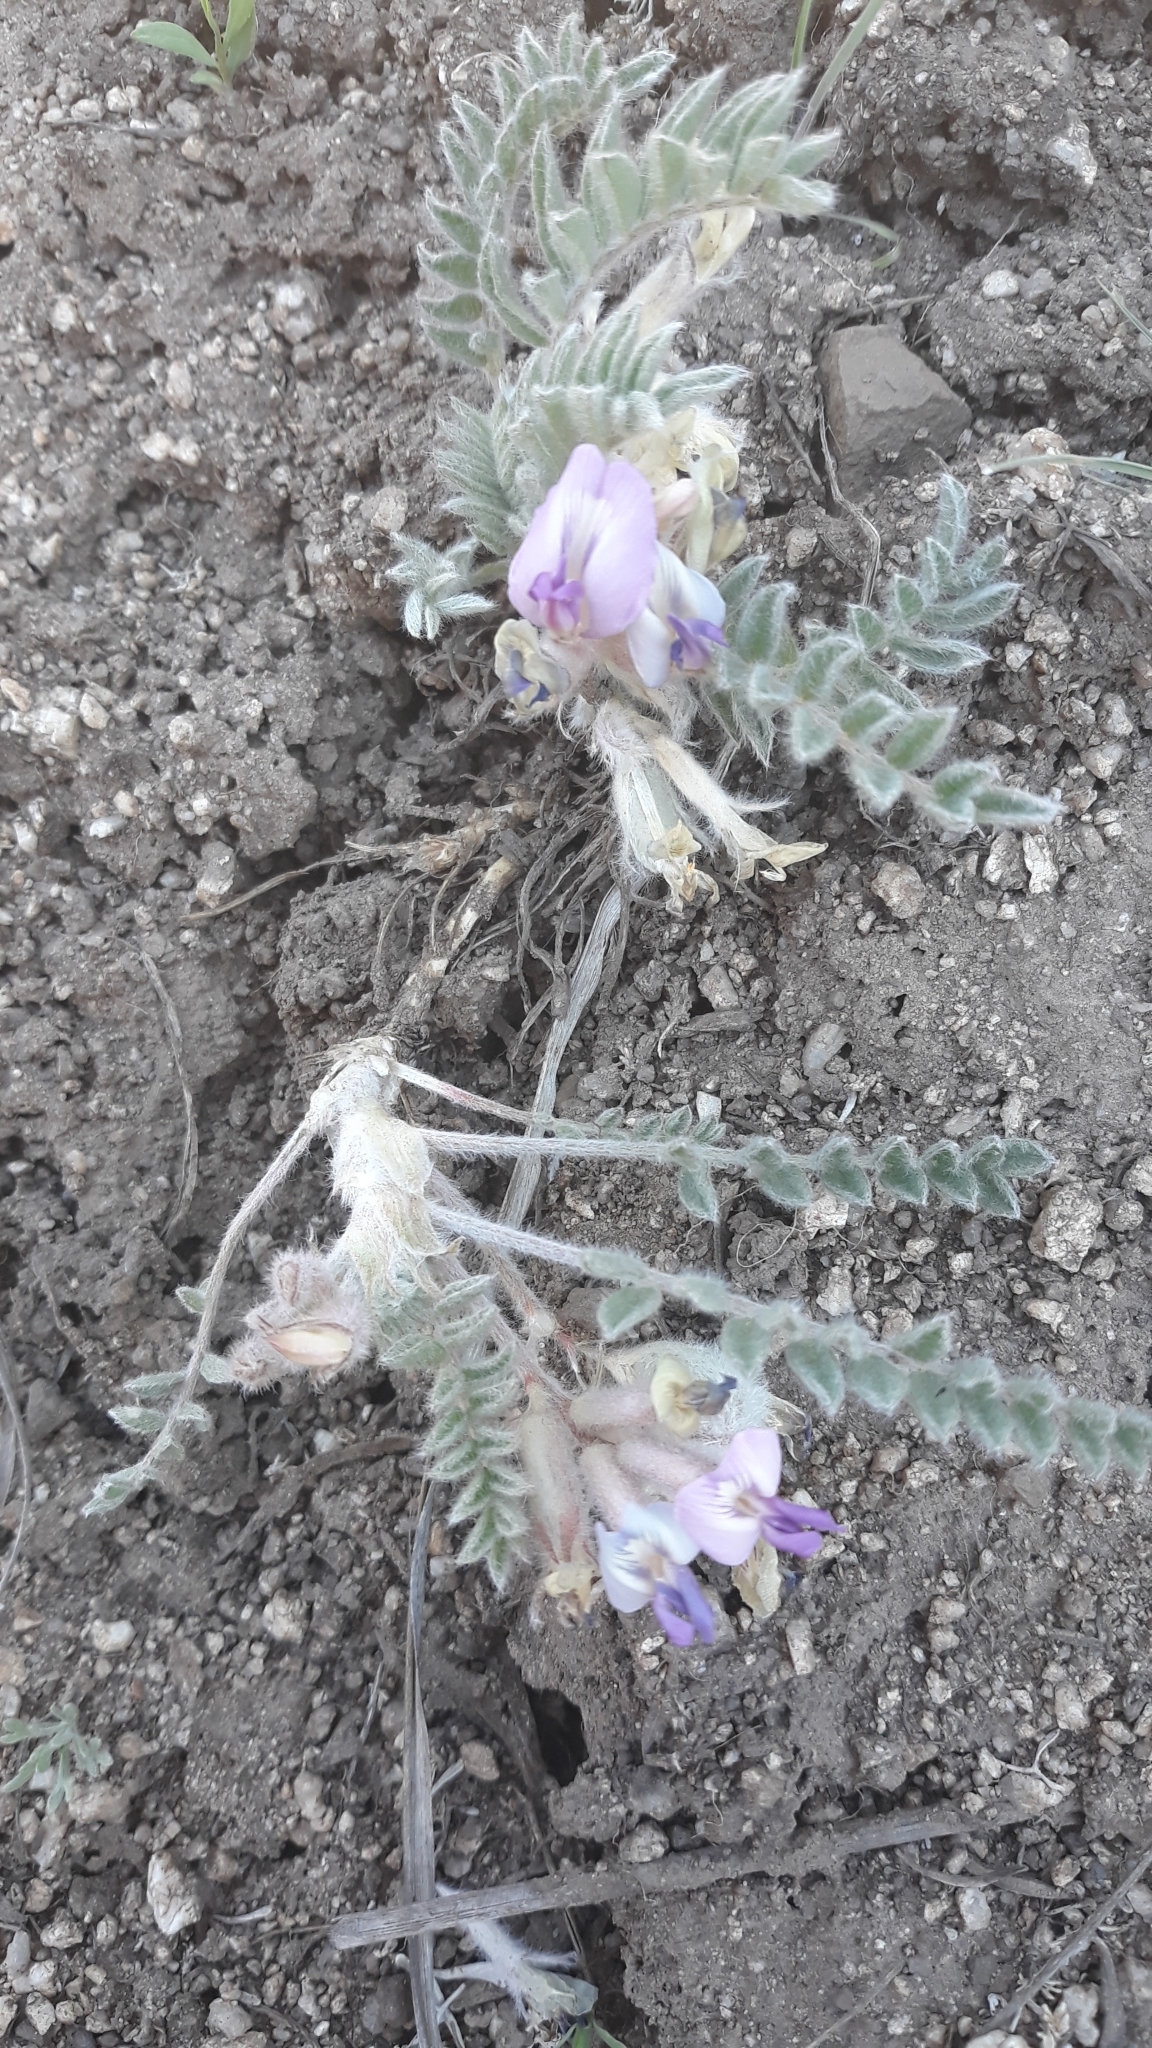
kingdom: Plantae
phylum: Tracheophyta
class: Magnoliopsida
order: Fabales
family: Fabaceae
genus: Astragalus
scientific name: Astragalus purshii
